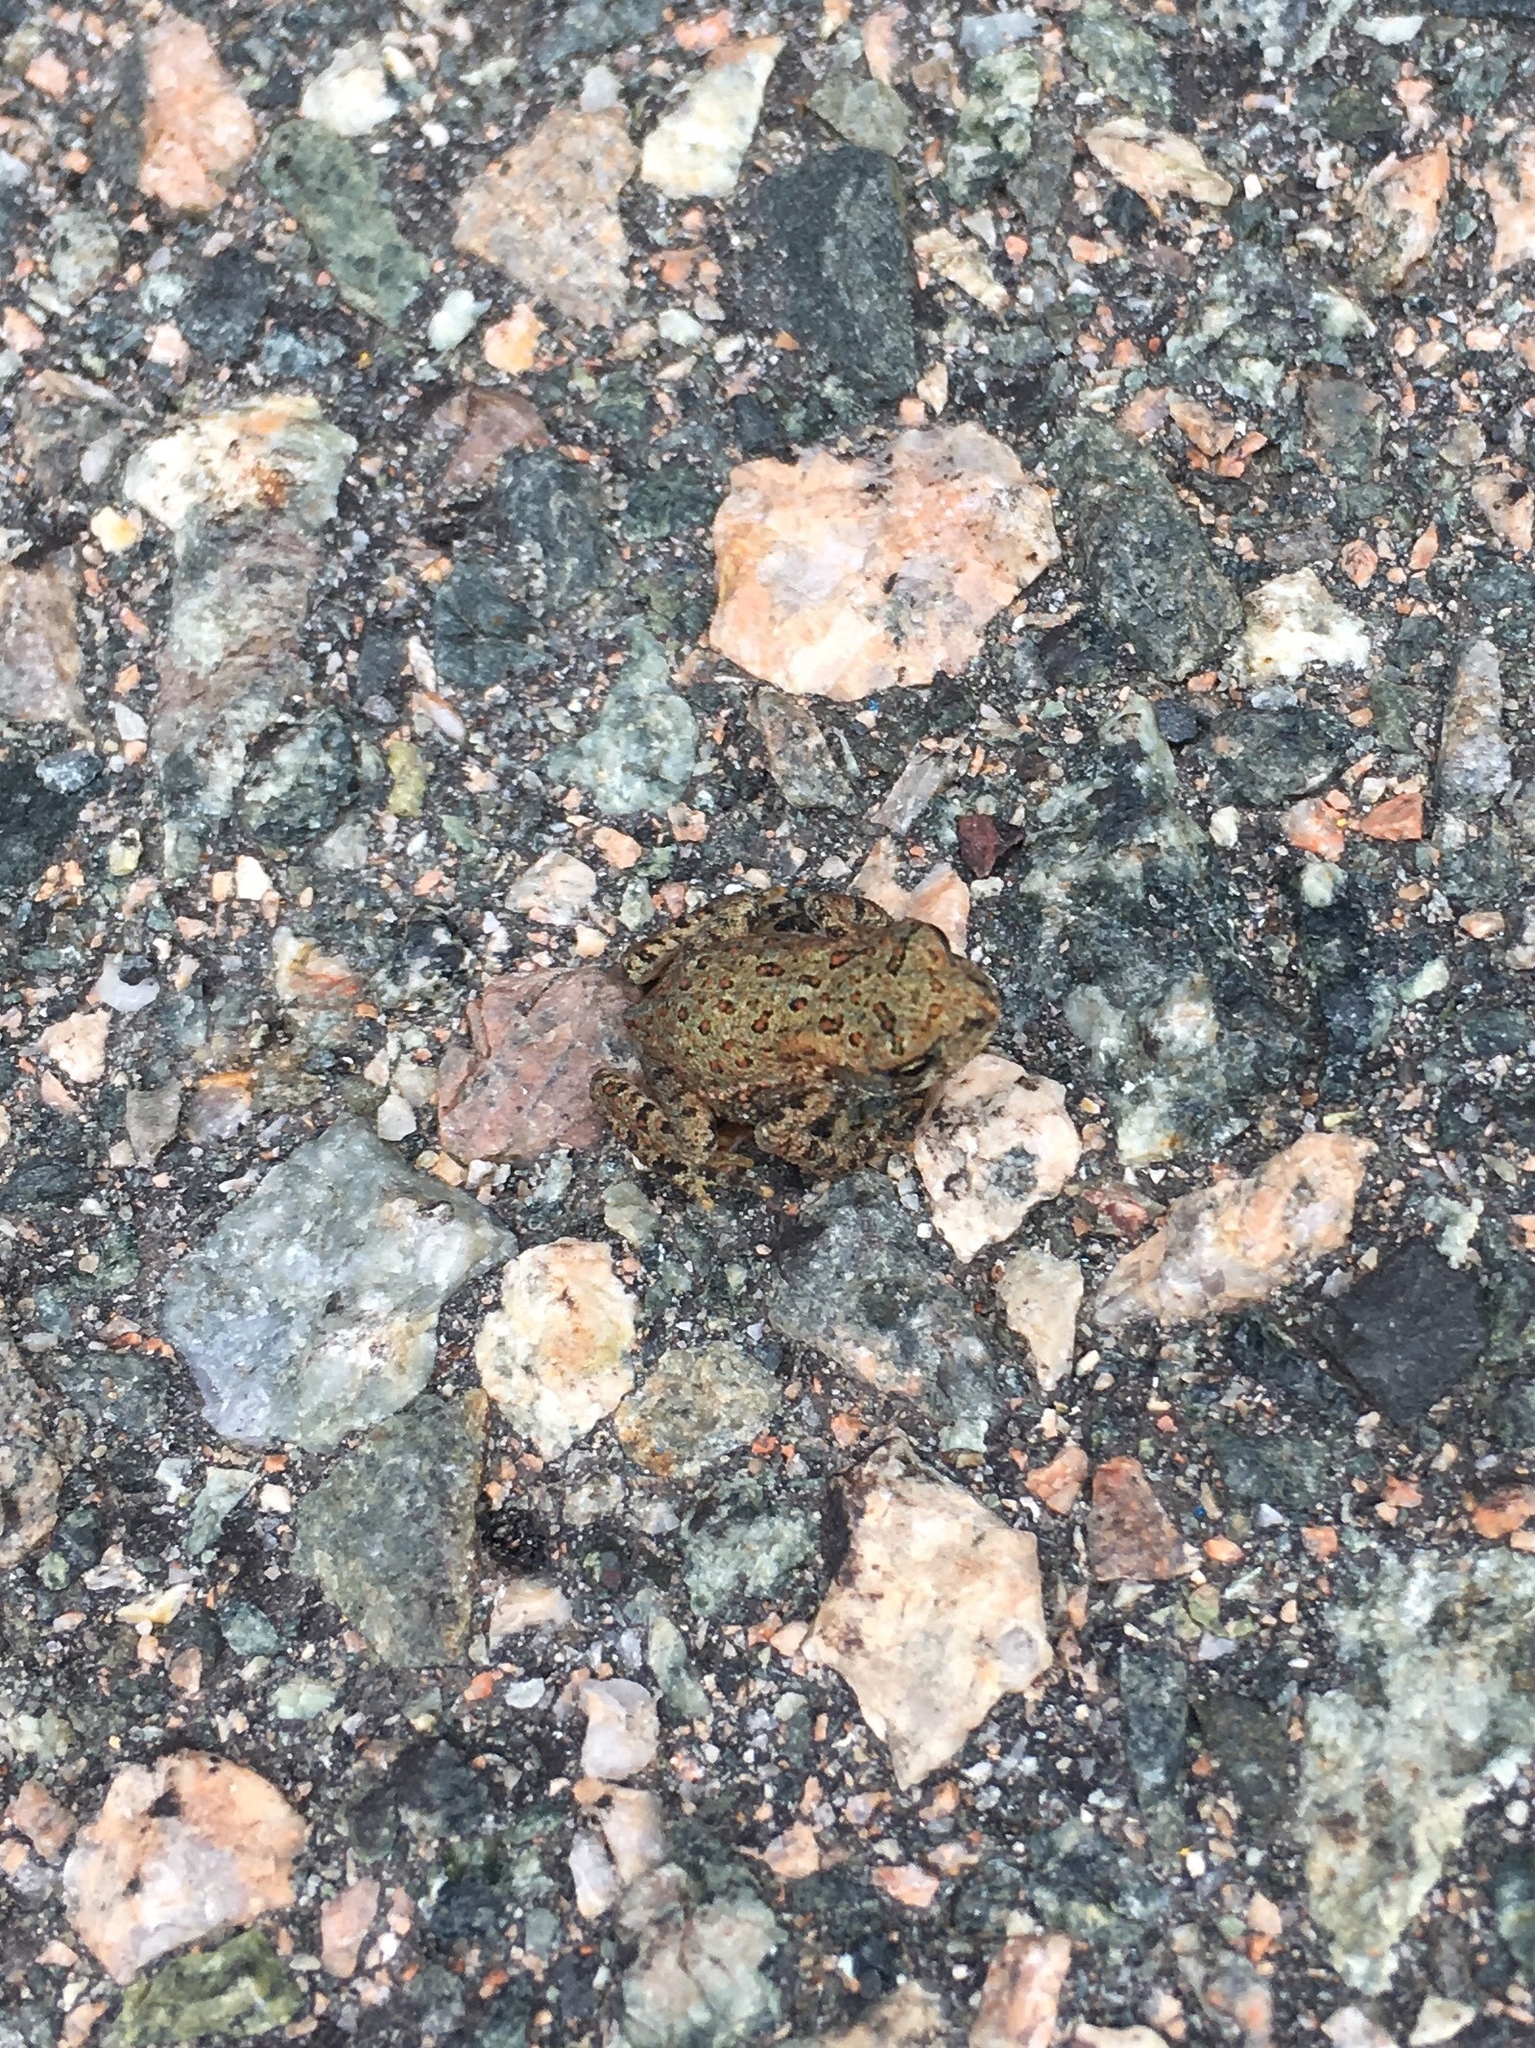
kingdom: Animalia
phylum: Chordata
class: Amphibia
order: Anura
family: Bufonidae
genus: Anaxyrus
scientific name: Anaxyrus americanus
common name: American toad
